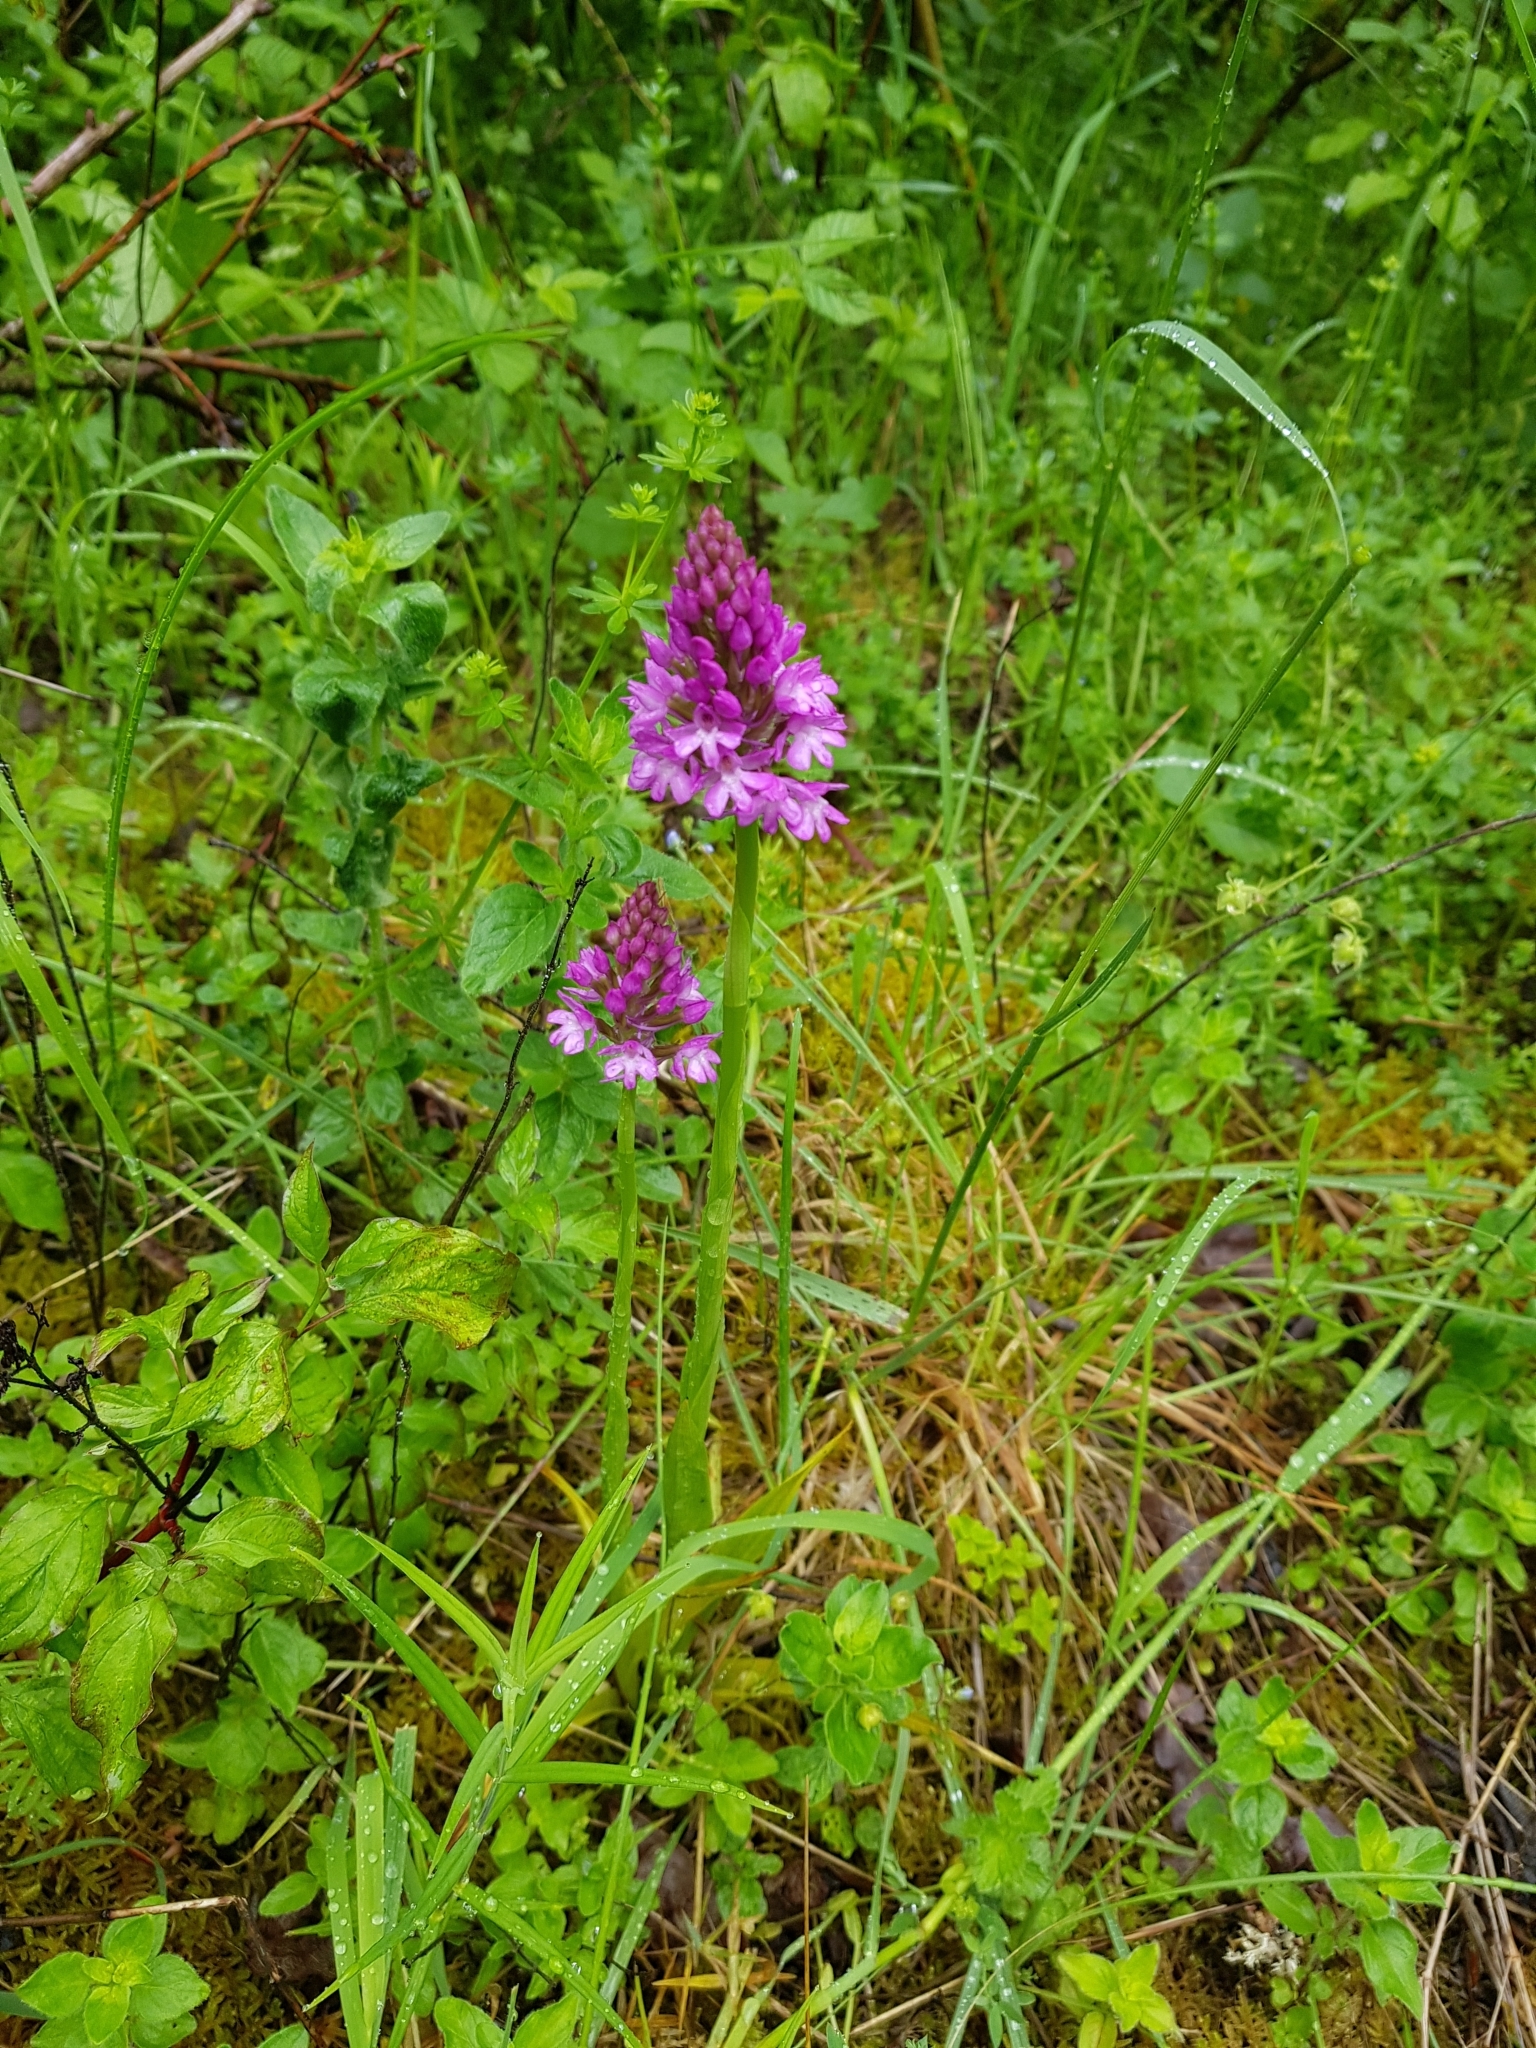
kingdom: Plantae
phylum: Tracheophyta
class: Liliopsida
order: Asparagales
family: Orchidaceae
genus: Anacamptis
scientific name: Anacamptis pyramidalis
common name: Pyramidal orchid
